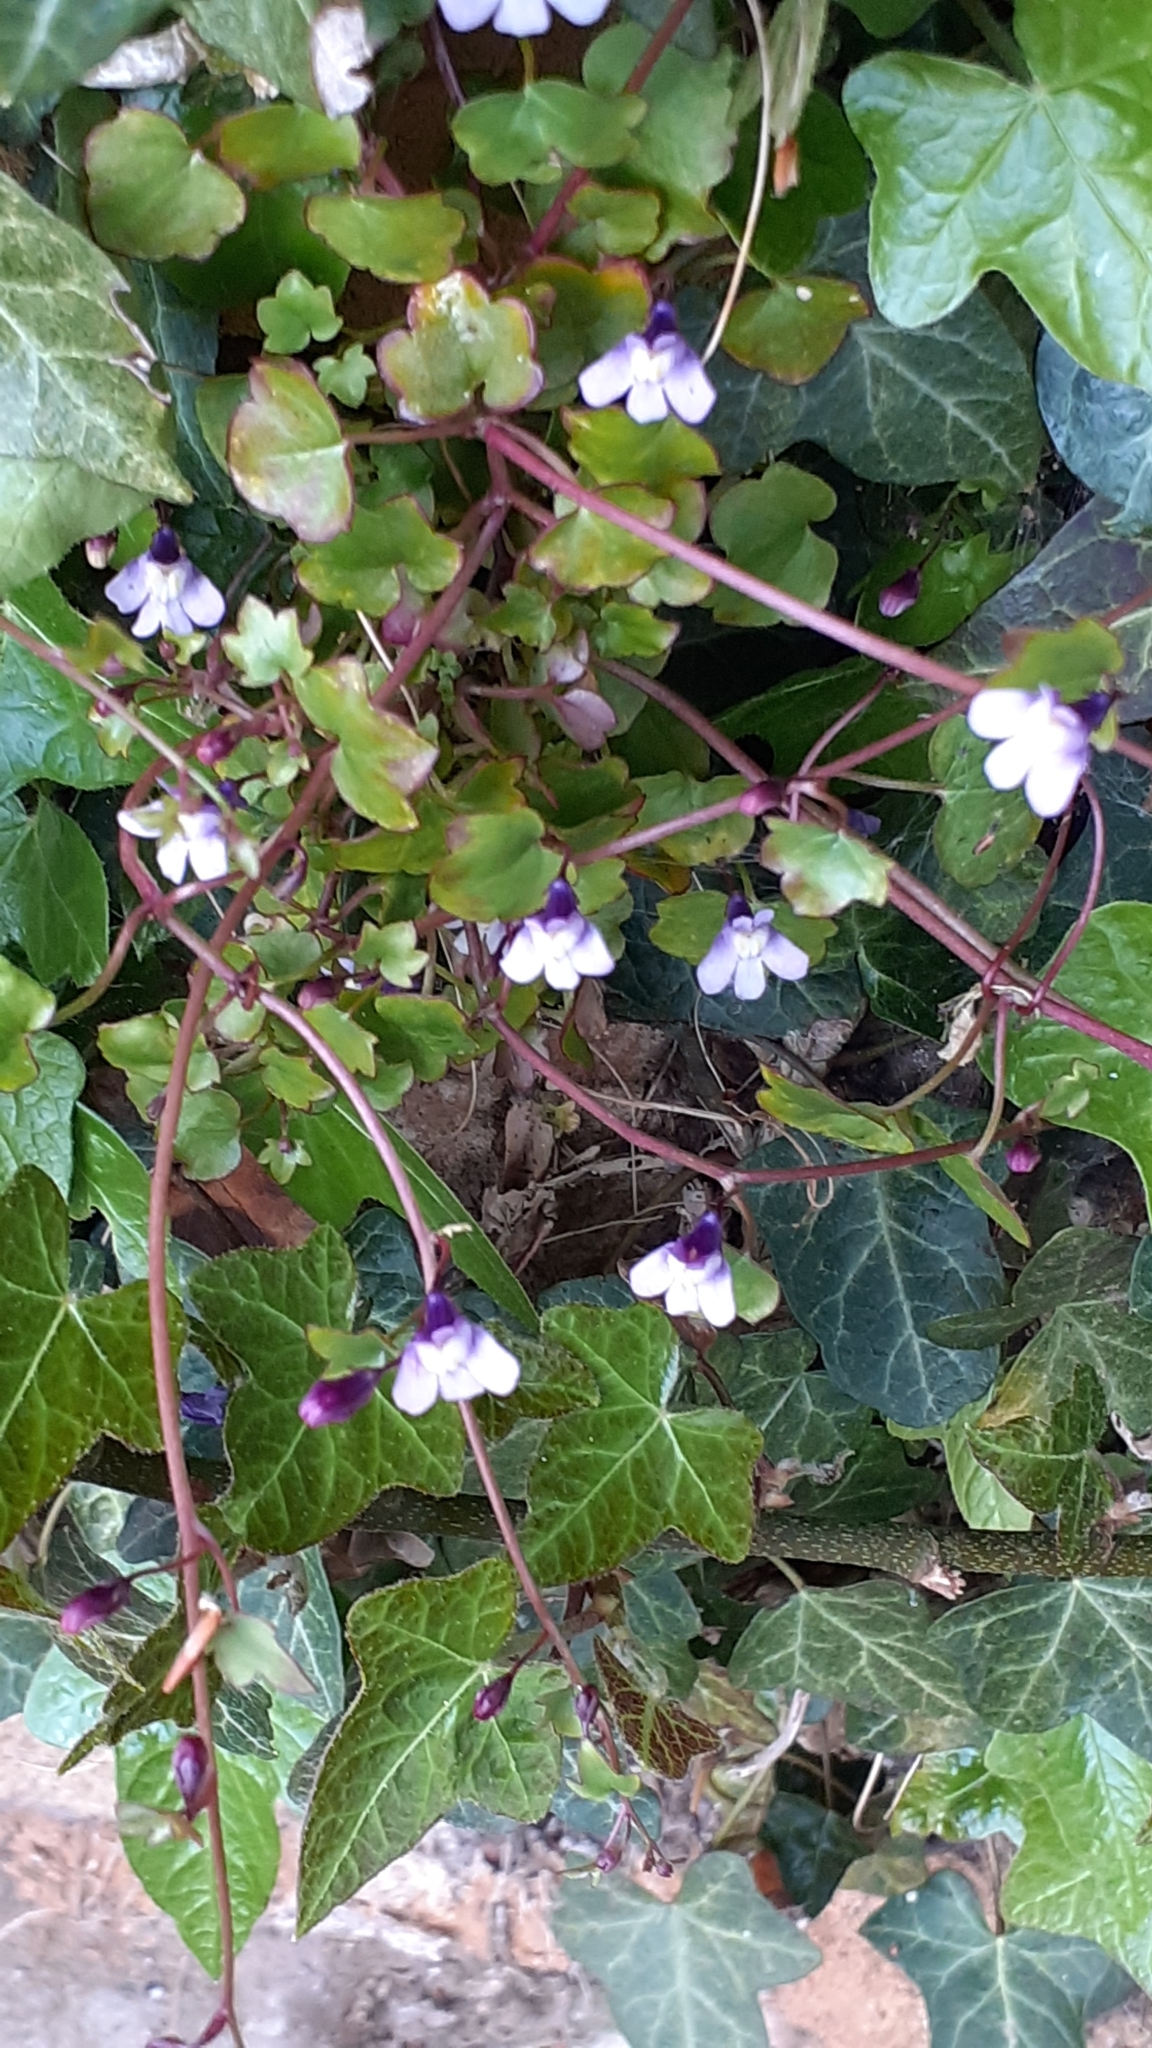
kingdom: Plantae
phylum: Tracheophyta
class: Magnoliopsida
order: Lamiales
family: Plantaginaceae
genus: Cymbalaria
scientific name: Cymbalaria muralis
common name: Ivy-leaved toadflax
